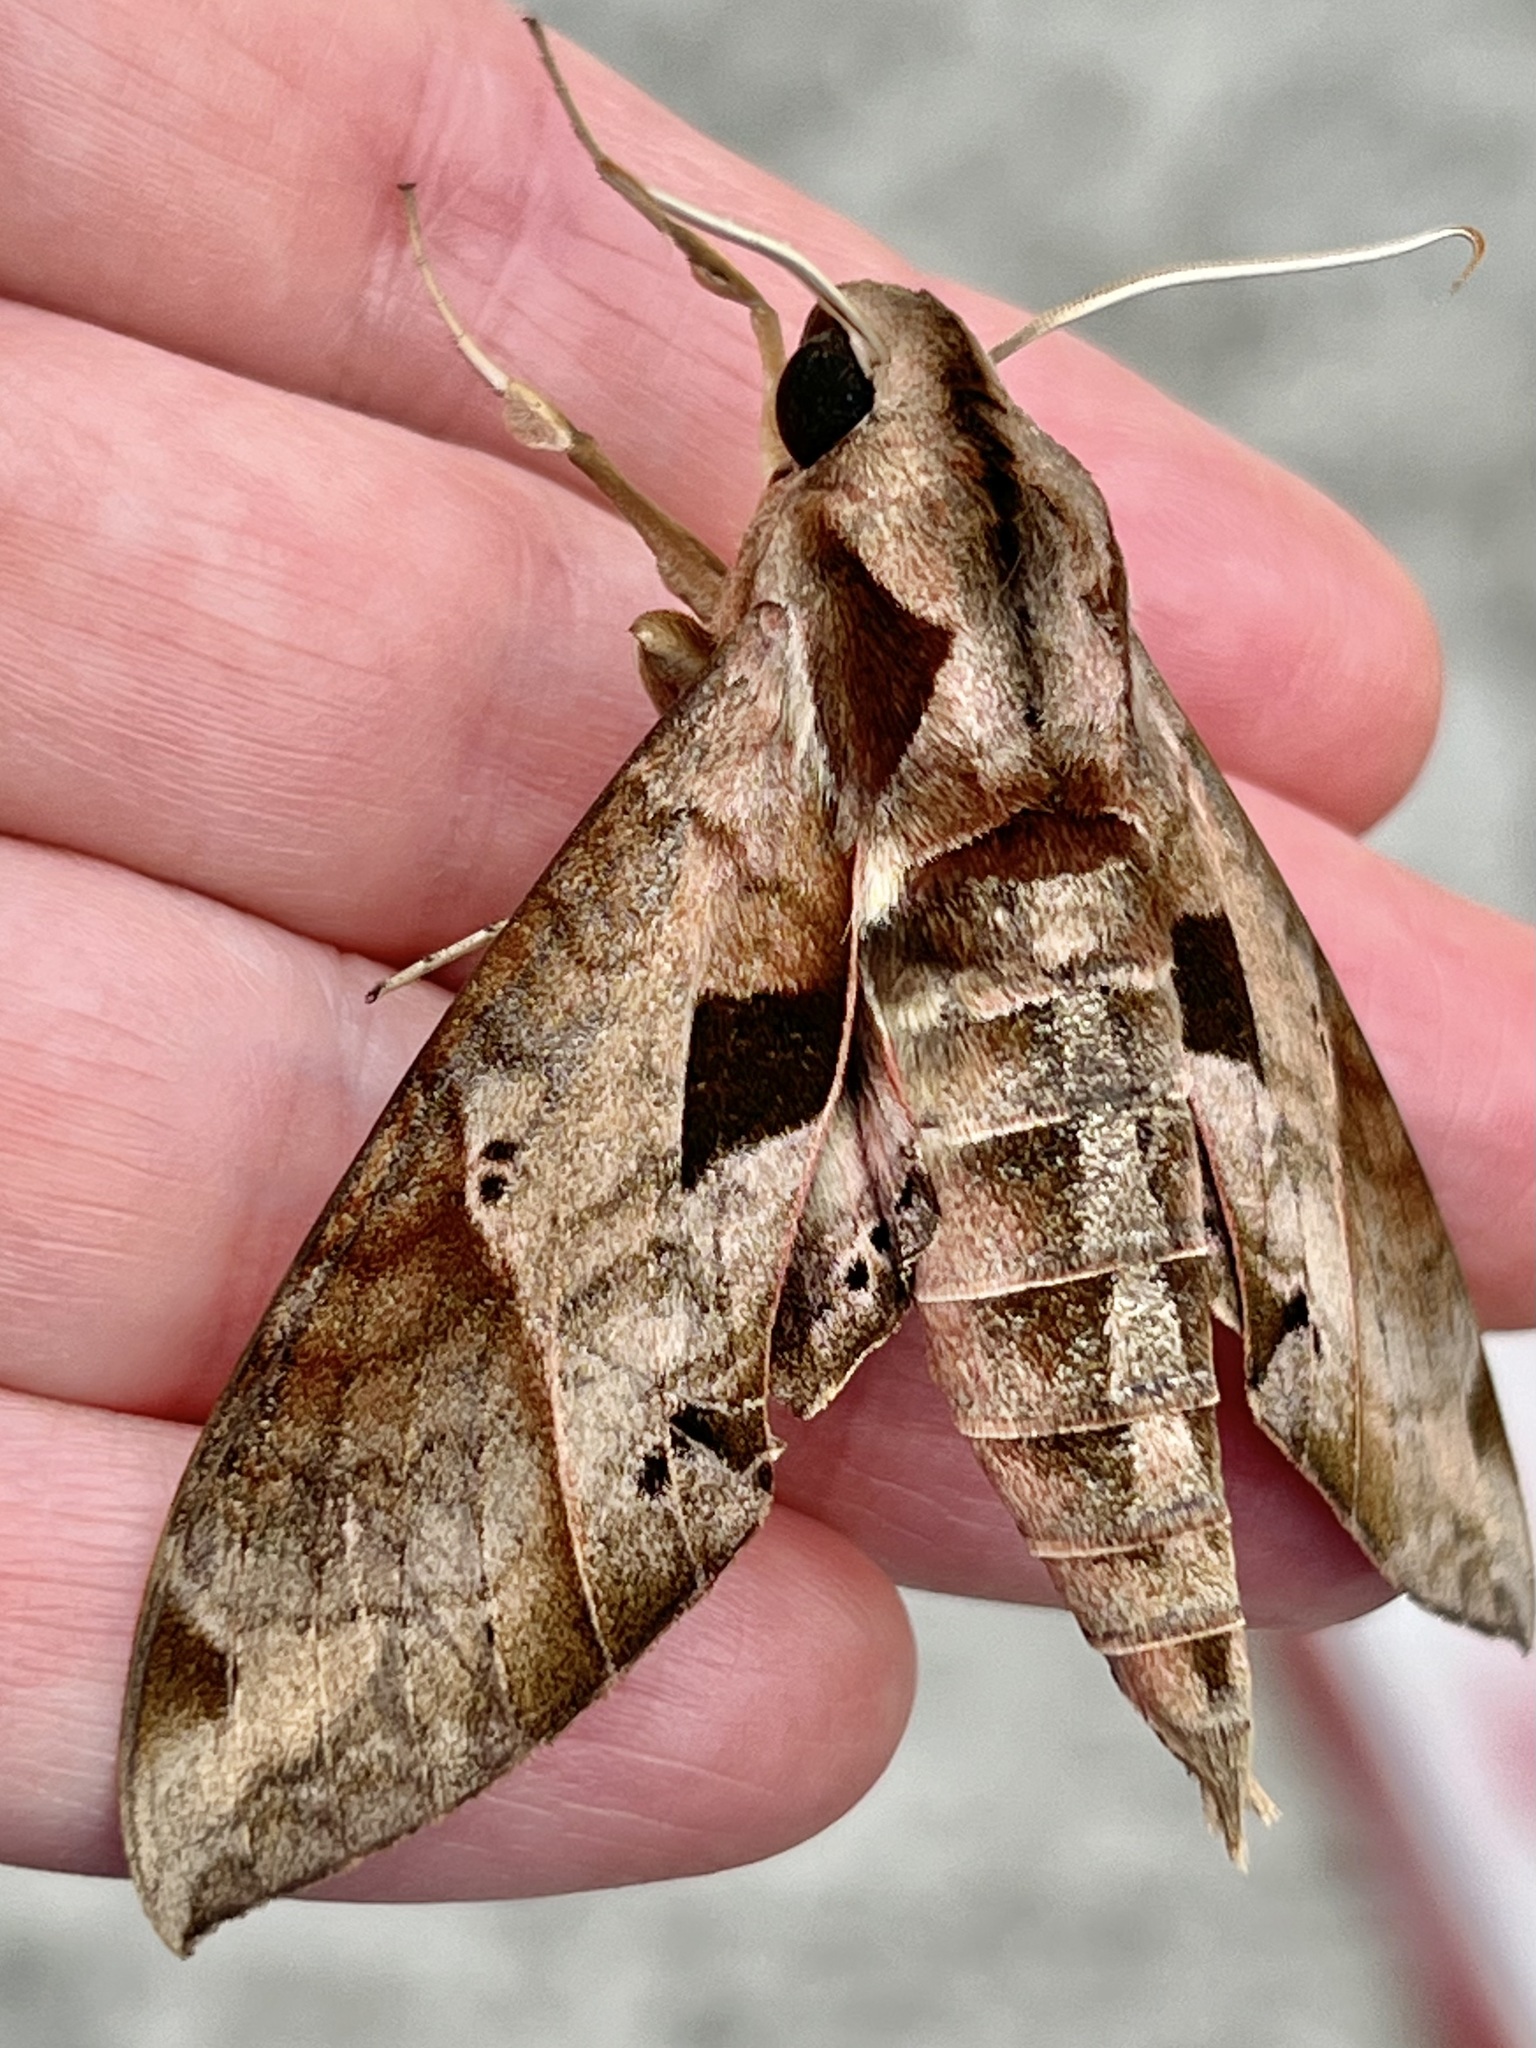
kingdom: Animalia
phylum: Arthropoda
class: Insecta
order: Lepidoptera
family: Sphingidae
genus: Eumorpha
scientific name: Eumorpha satellitia
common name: Satellite sphinx
